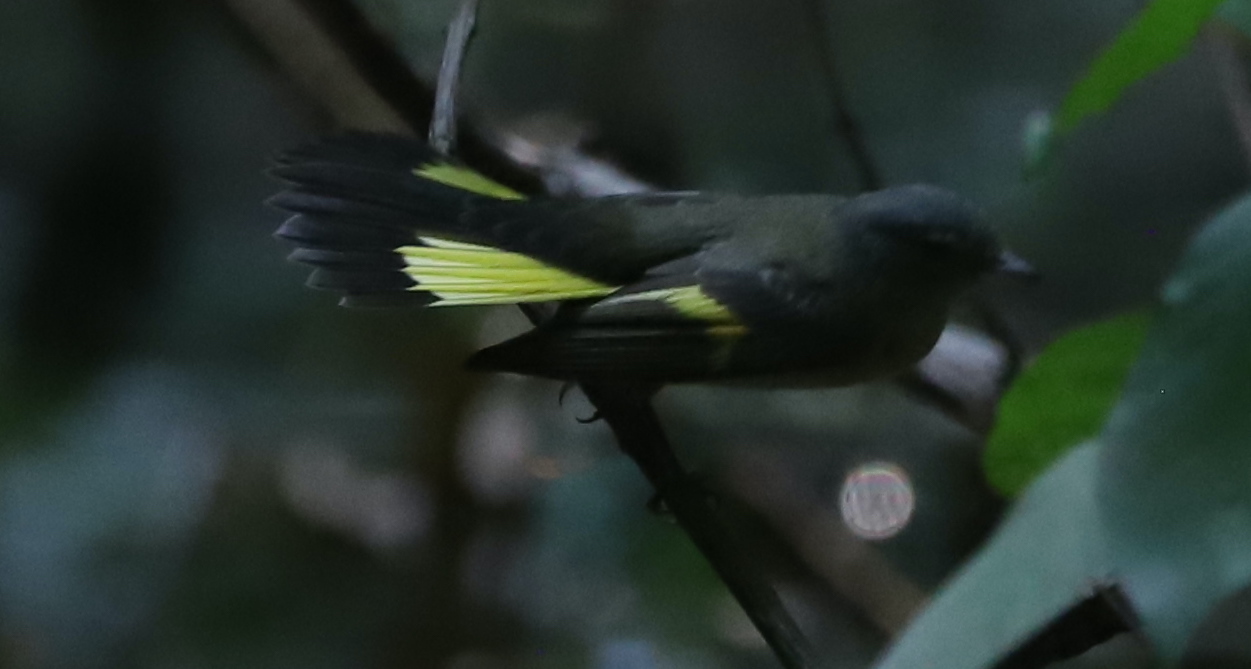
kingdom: Animalia
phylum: Chordata
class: Aves
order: Passeriformes
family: Parulidae
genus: Setophaga
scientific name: Setophaga ruticilla
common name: American redstart
